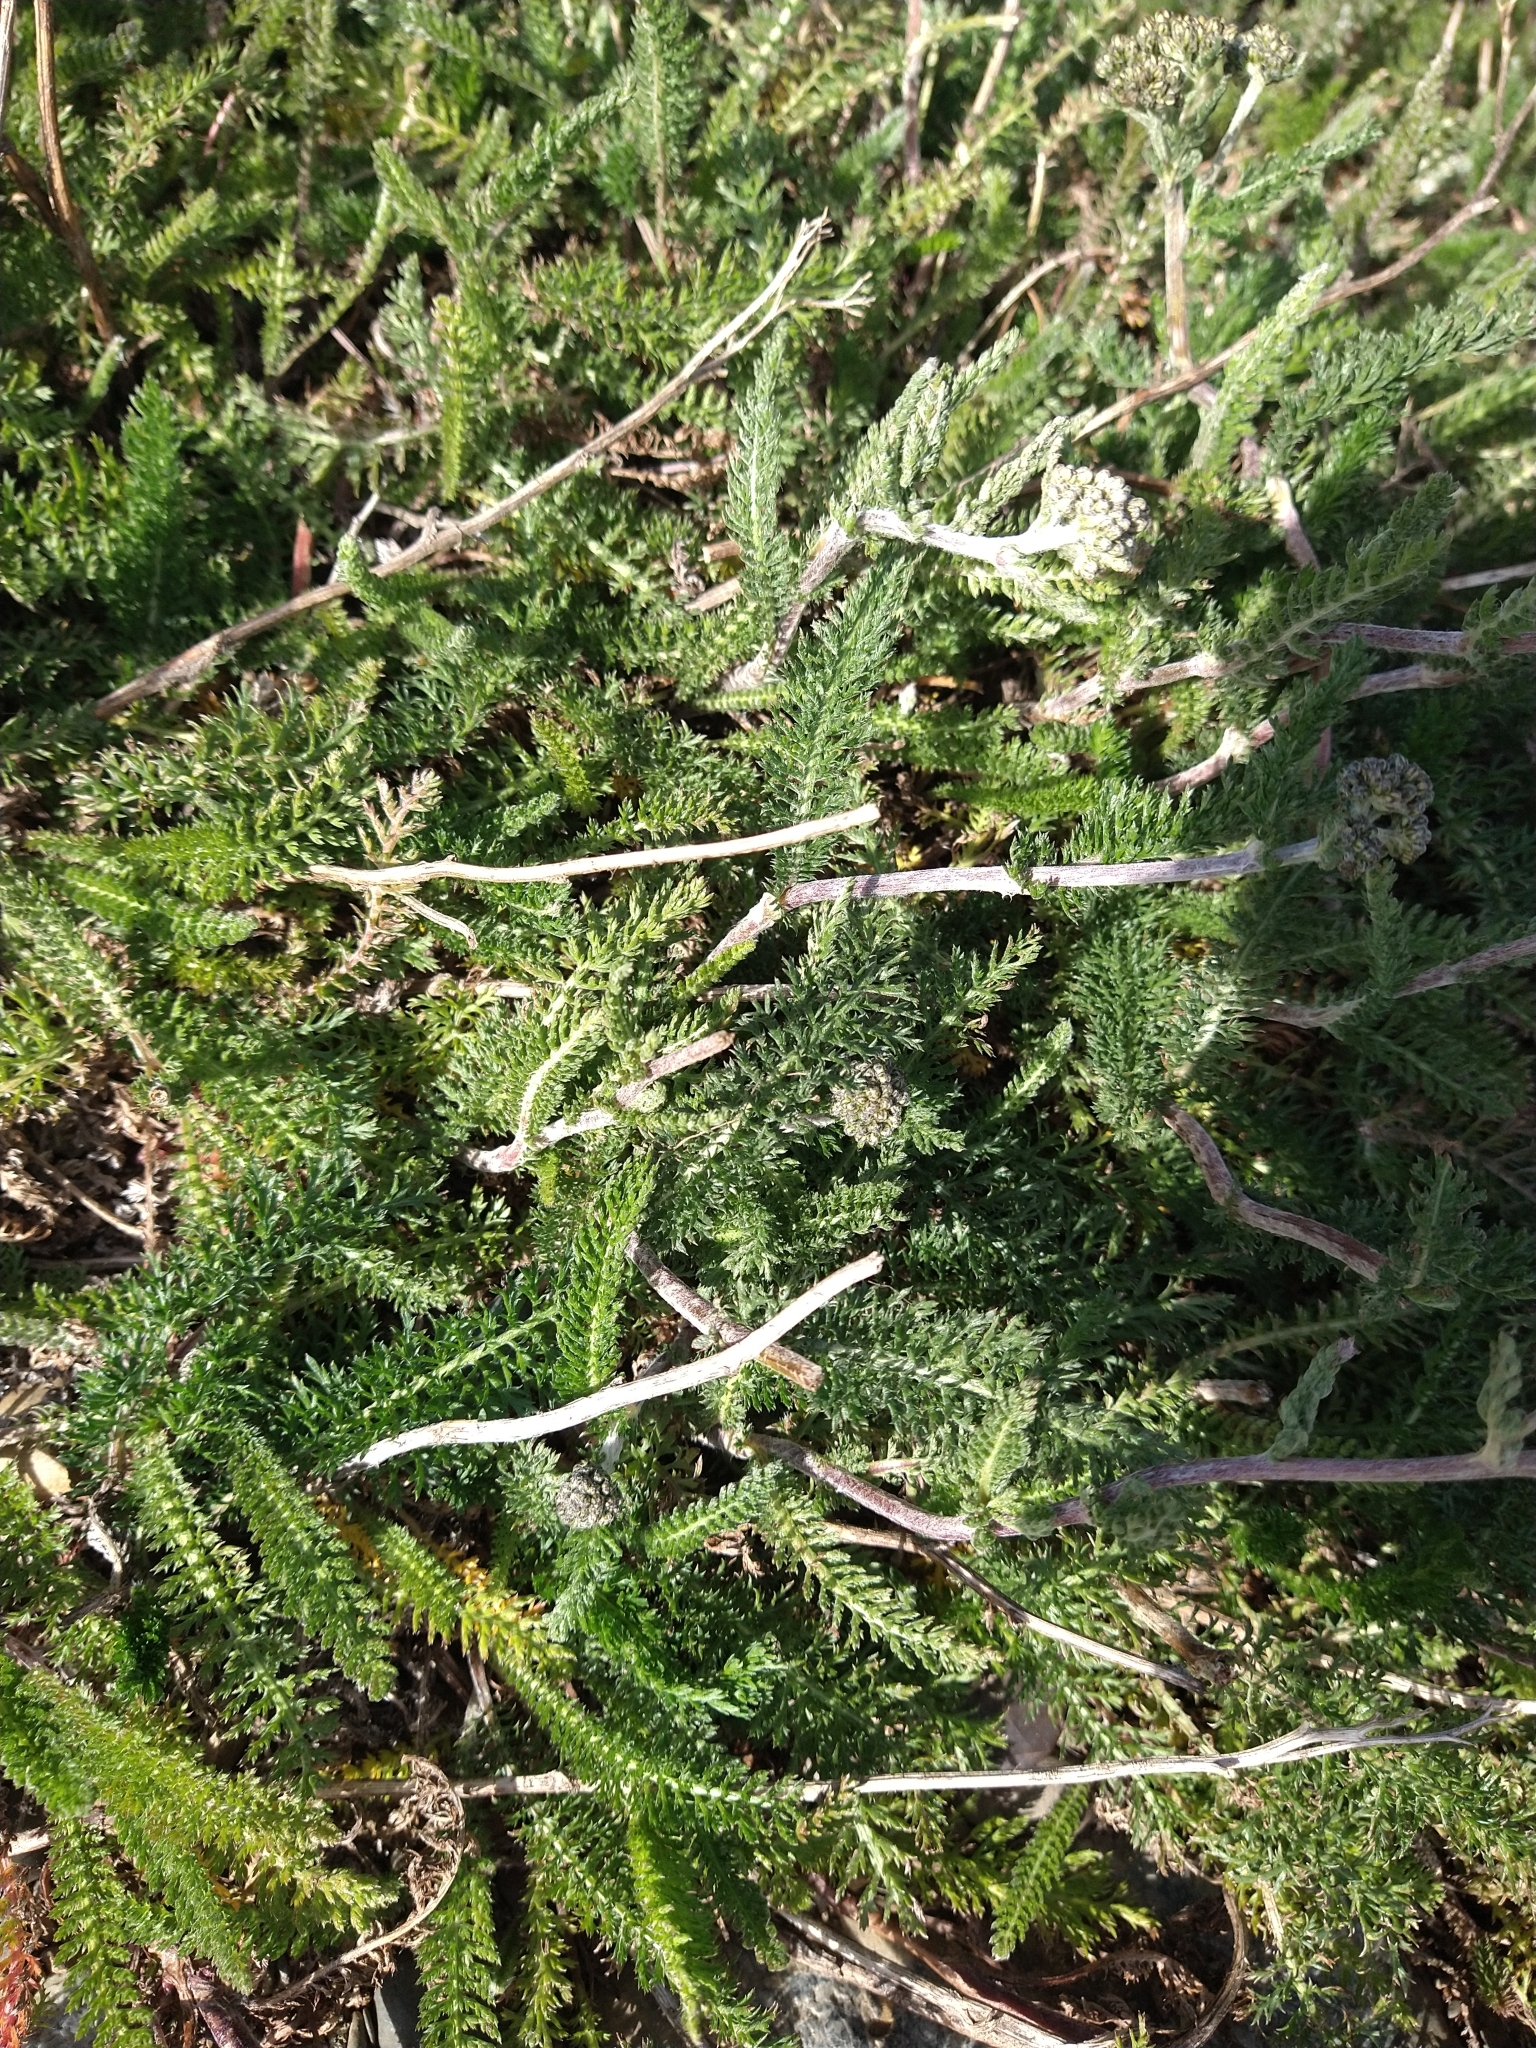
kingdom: Plantae
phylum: Tracheophyta
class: Magnoliopsida
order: Asterales
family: Asteraceae
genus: Achillea
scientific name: Achillea millefolium
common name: Yarrow
